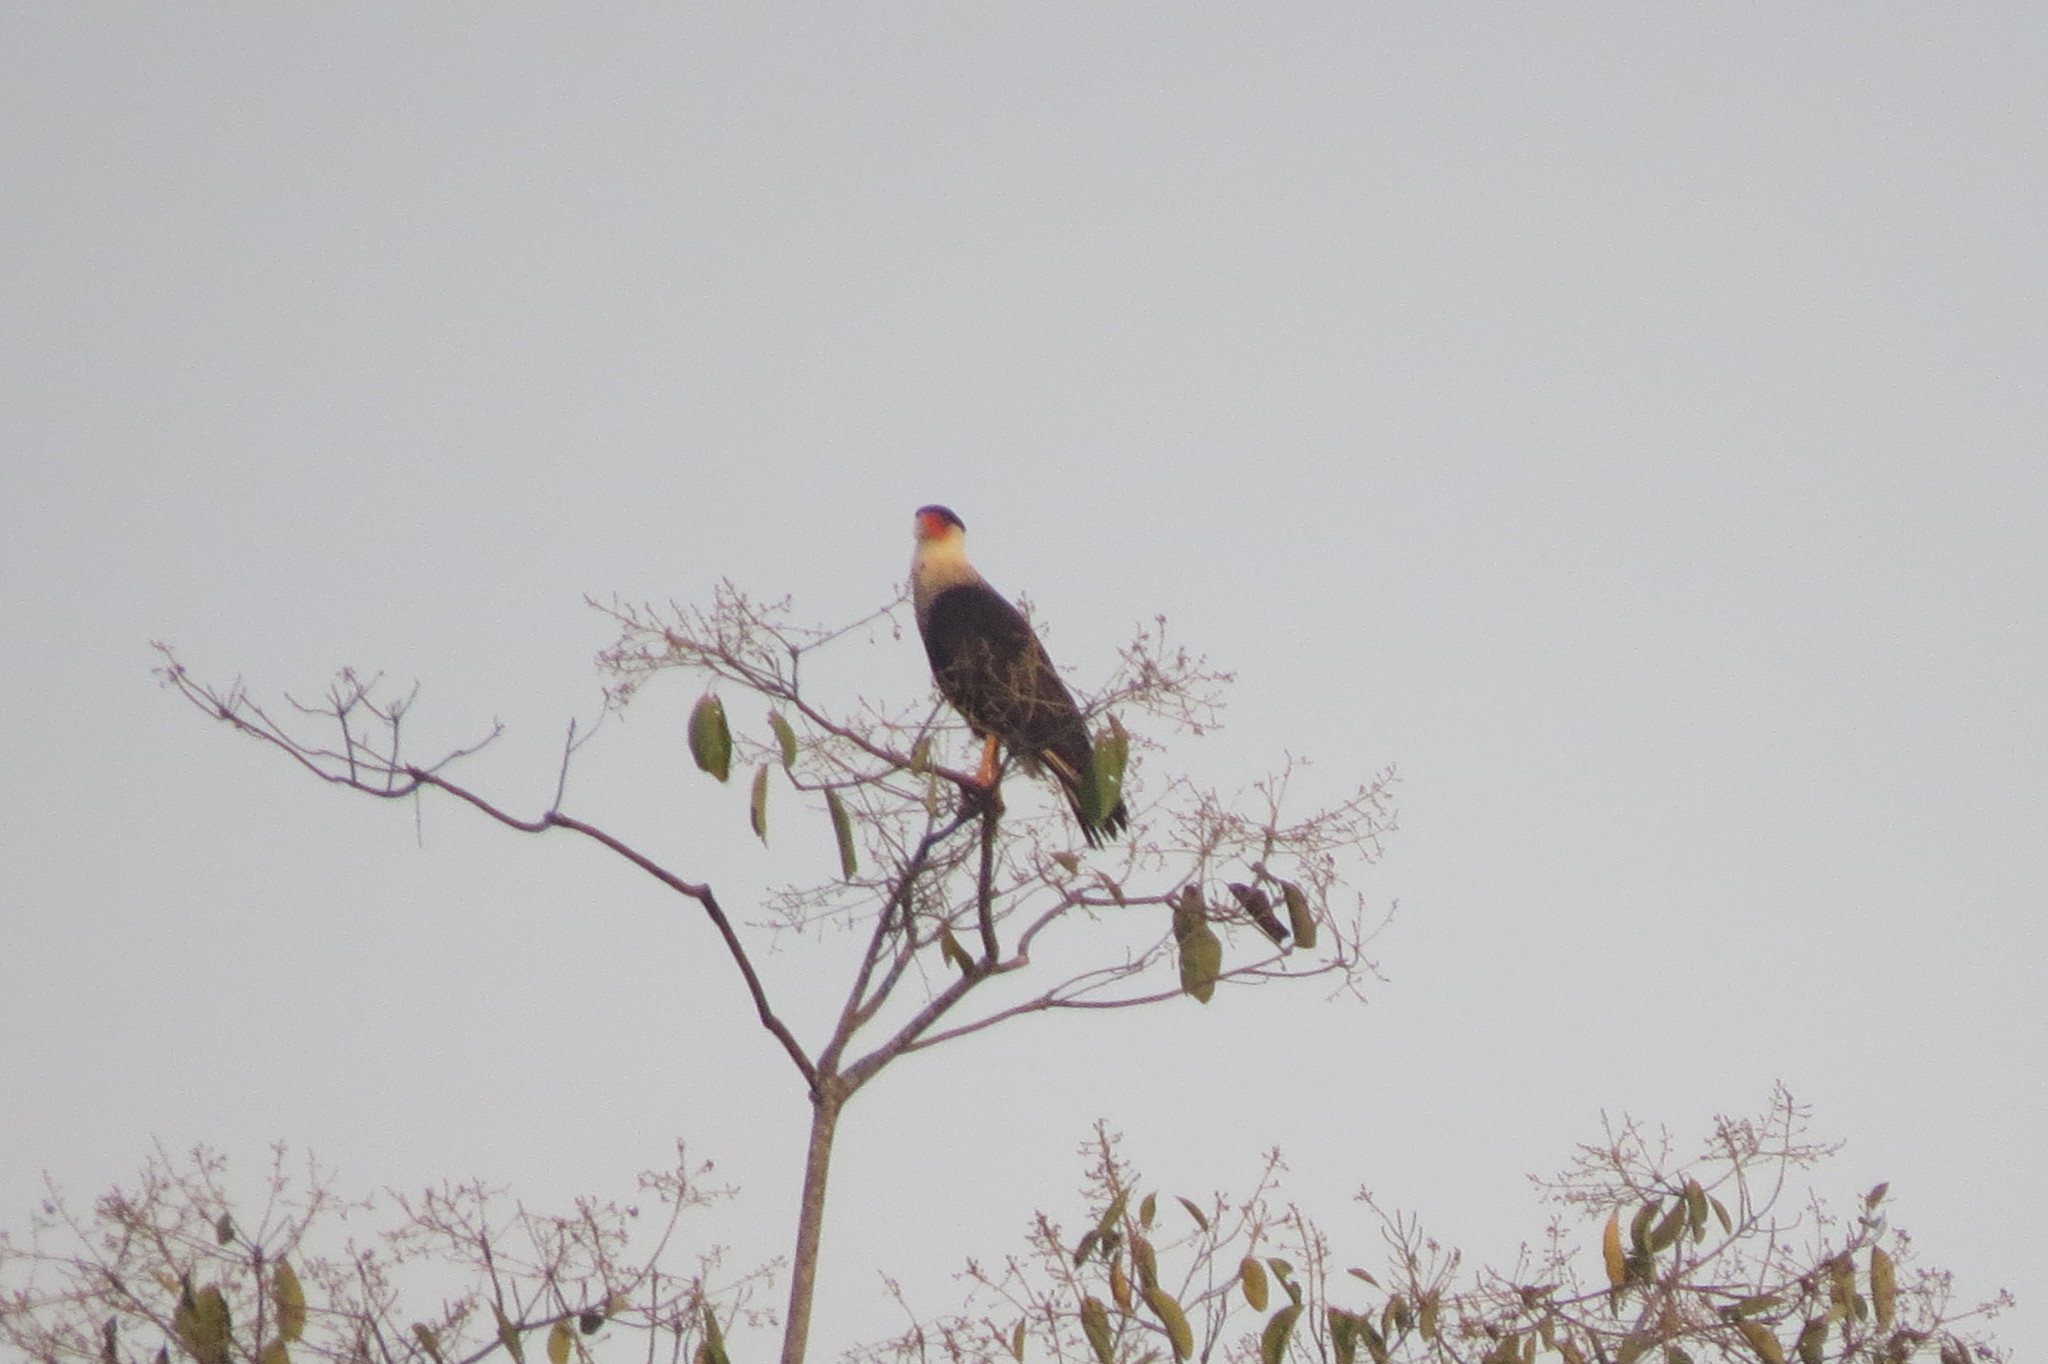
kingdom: Animalia
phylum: Chordata
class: Aves
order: Falconiformes
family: Falconidae
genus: Caracara
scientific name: Caracara plancus
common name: Southern caracara
